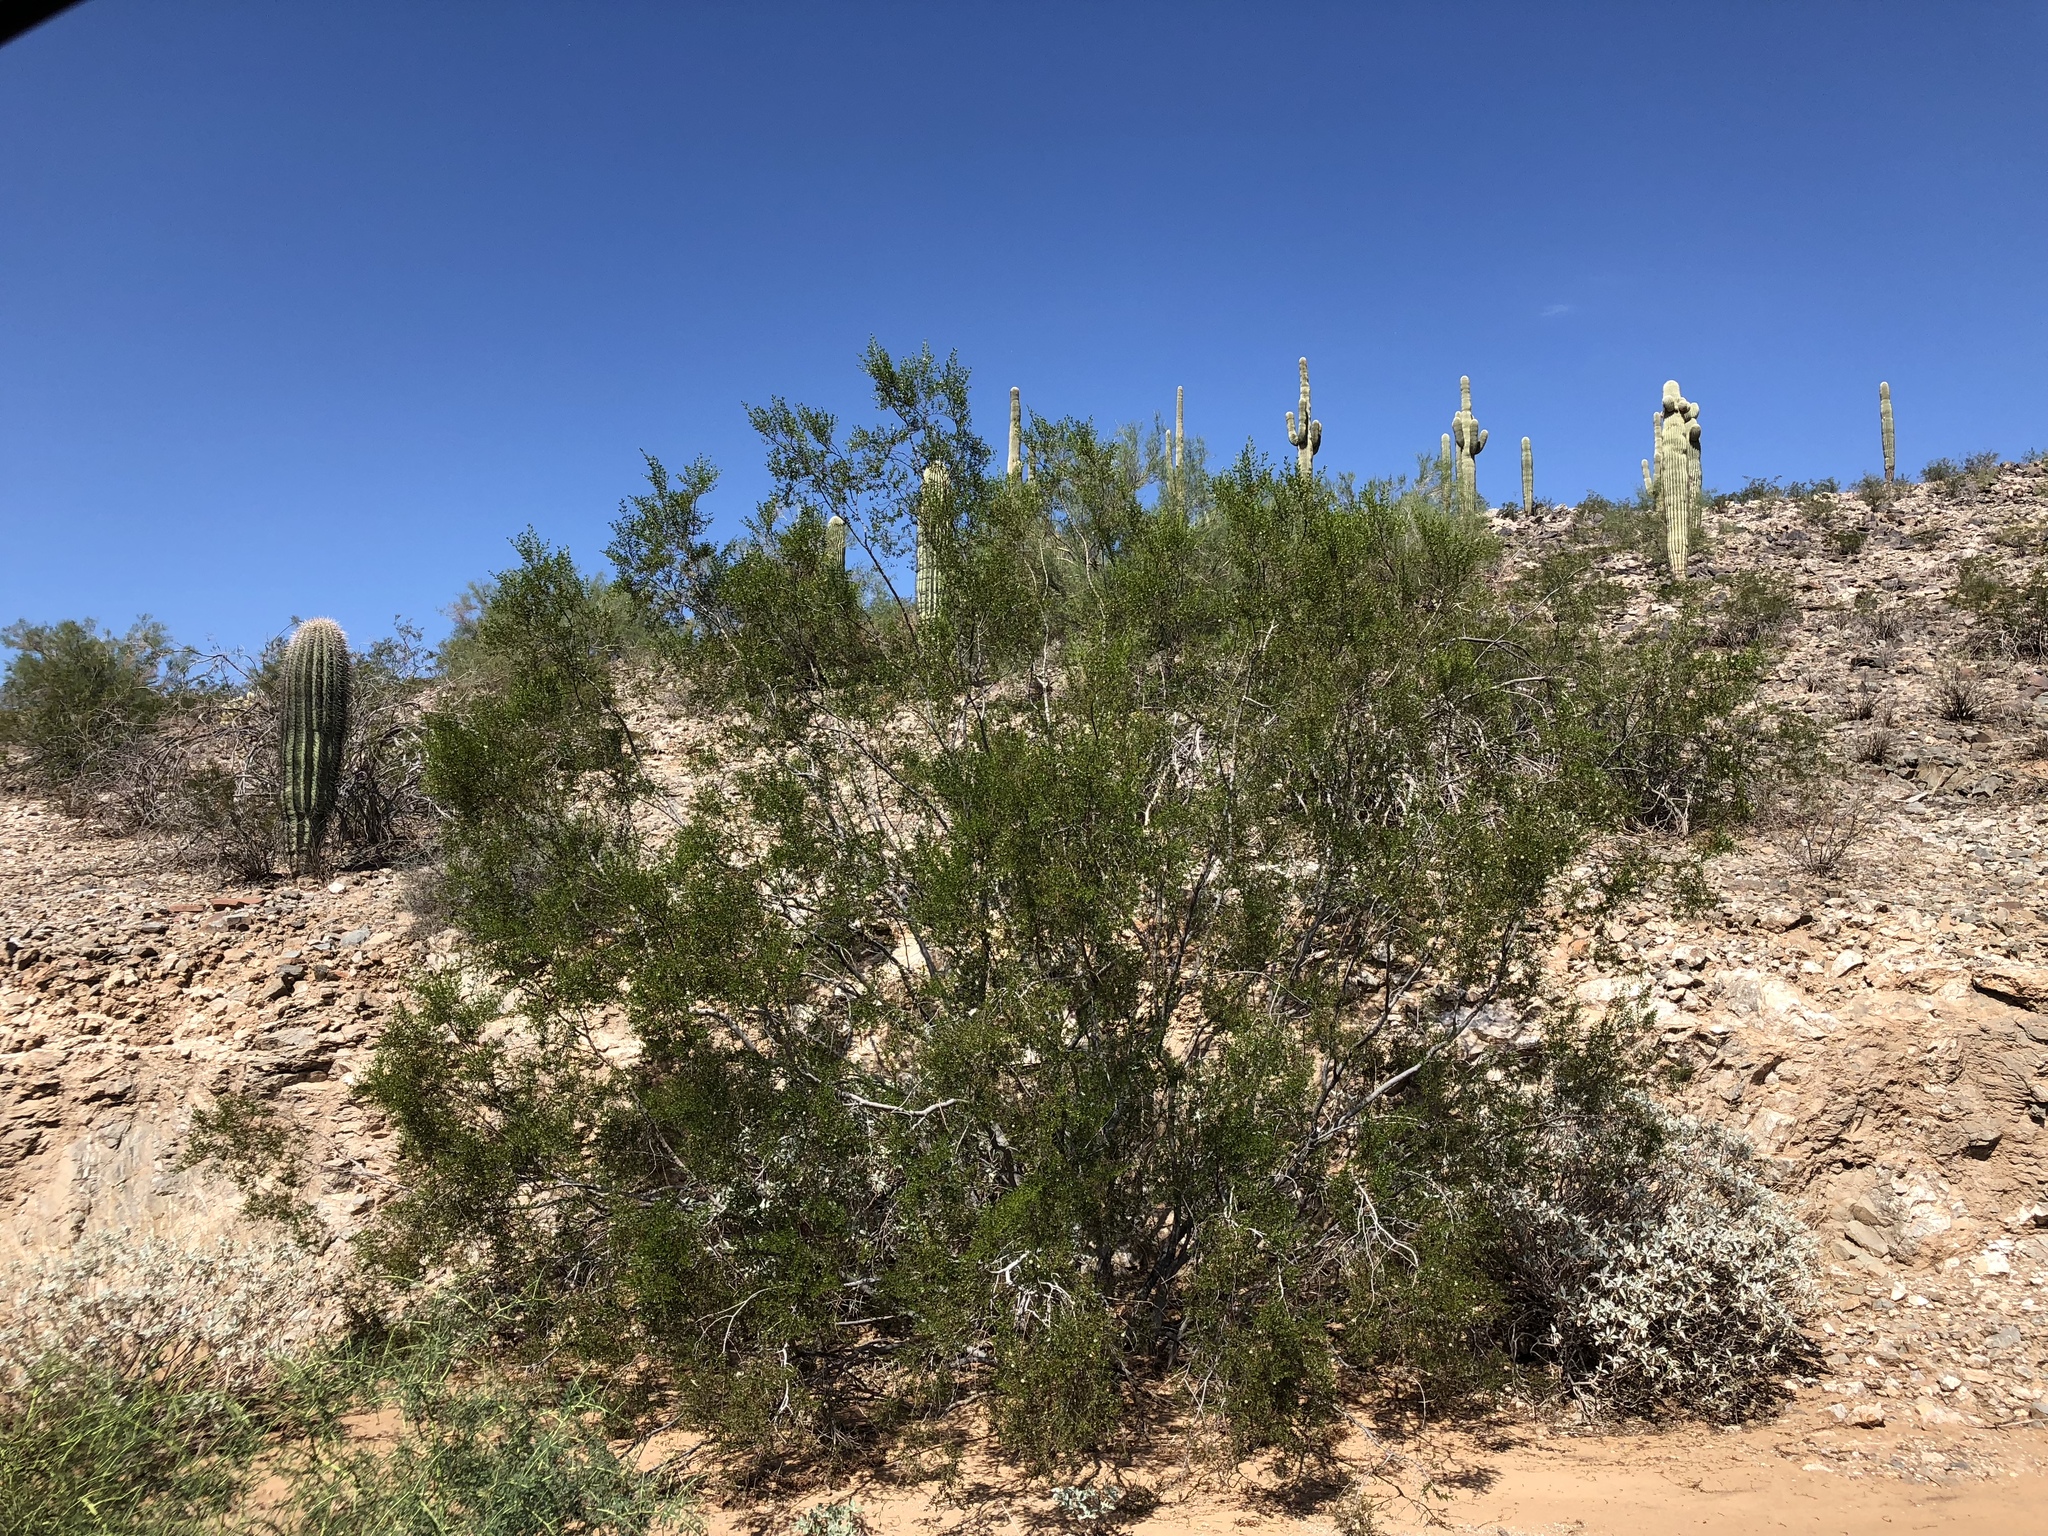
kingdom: Plantae
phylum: Tracheophyta
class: Magnoliopsida
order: Zygophyllales
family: Zygophyllaceae
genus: Larrea
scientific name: Larrea tridentata
